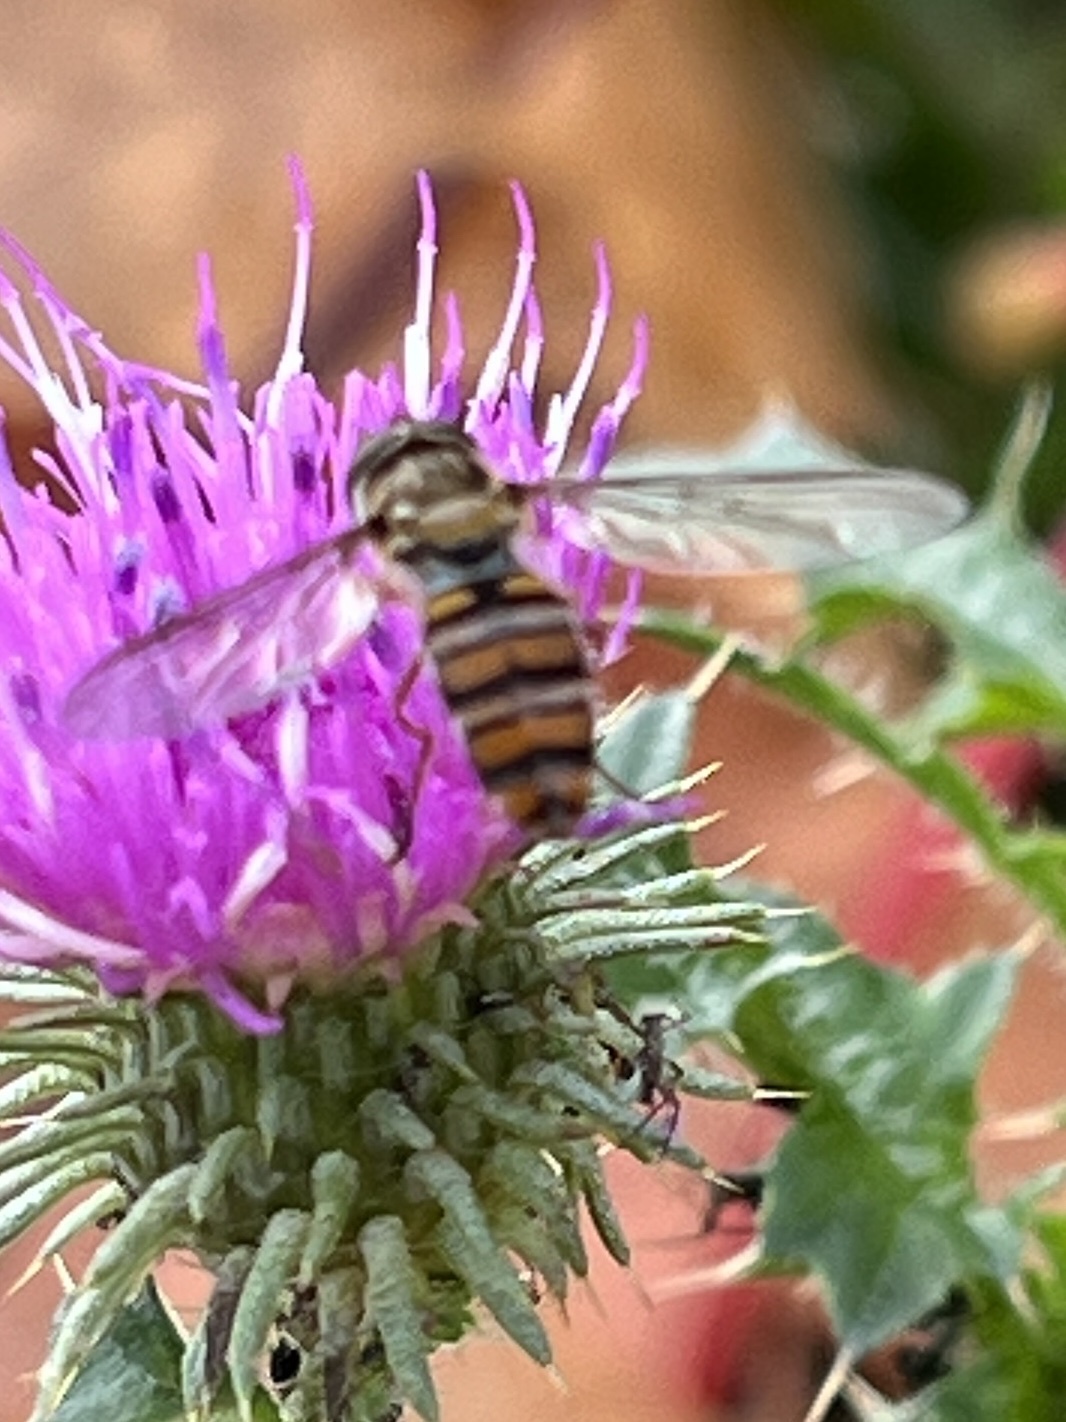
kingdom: Animalia
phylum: Arthropoda
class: Insecta
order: Diptera
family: Syrphidae
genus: Episyrphus
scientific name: Episyrphus balteatus
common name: Marmalade hoverfly
